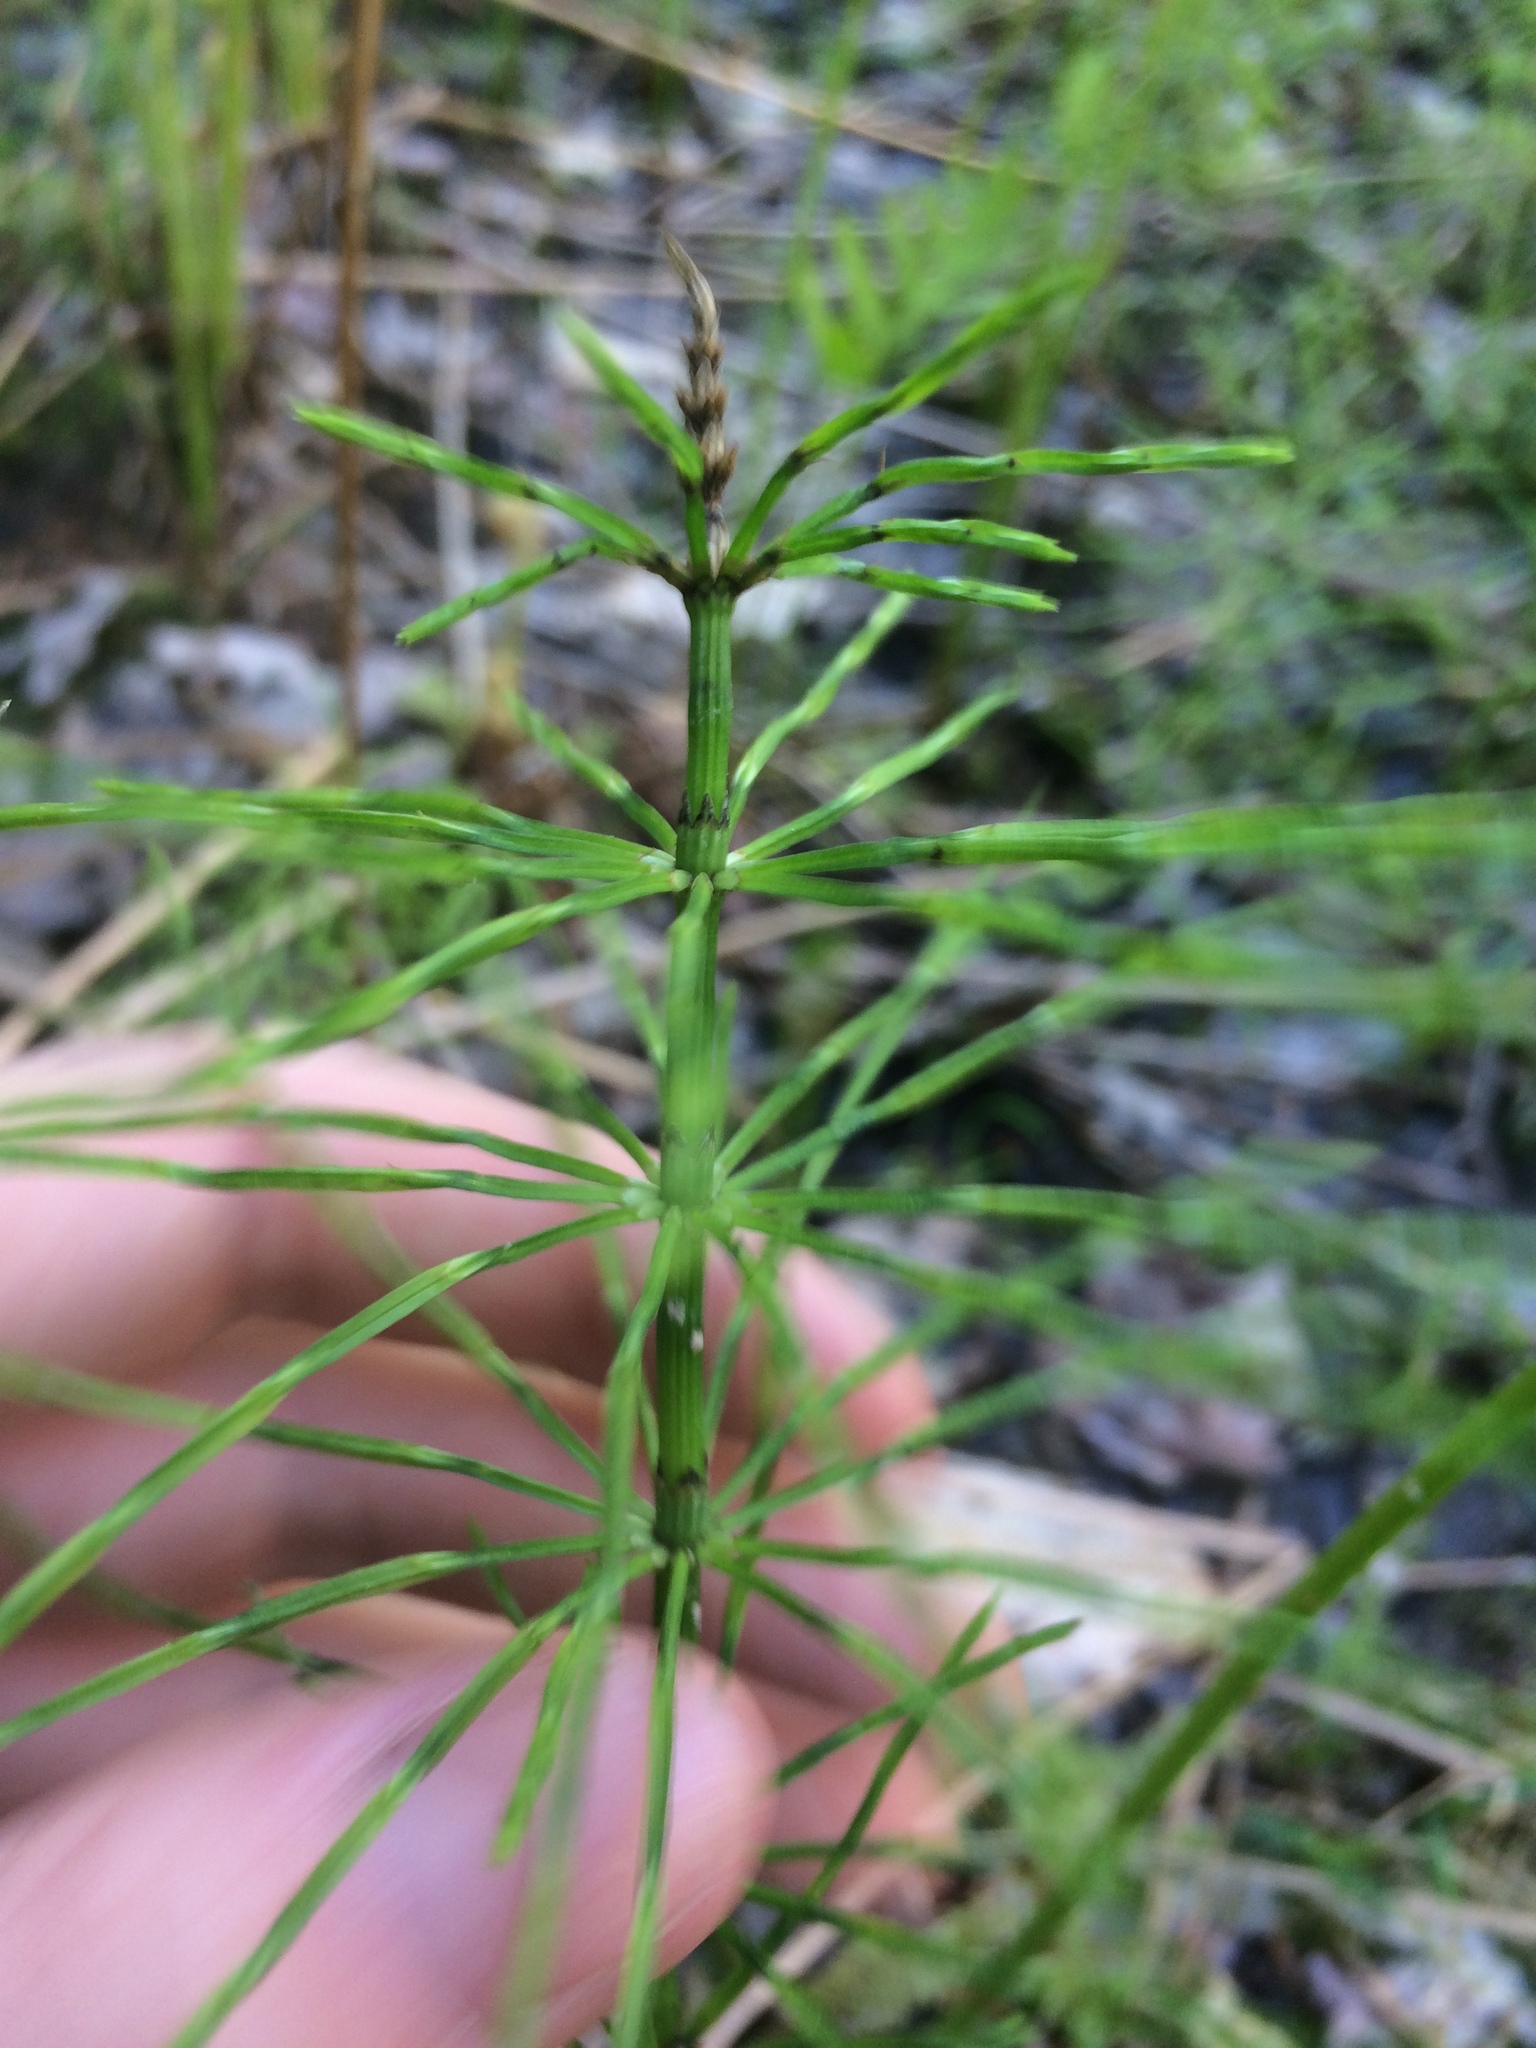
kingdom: Plantae
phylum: Tracheophyta
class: Polypodiopsida
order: Equisetales
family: Equisetaceae
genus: Equisetum
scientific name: Equisetum arvense
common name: Field horsetail
